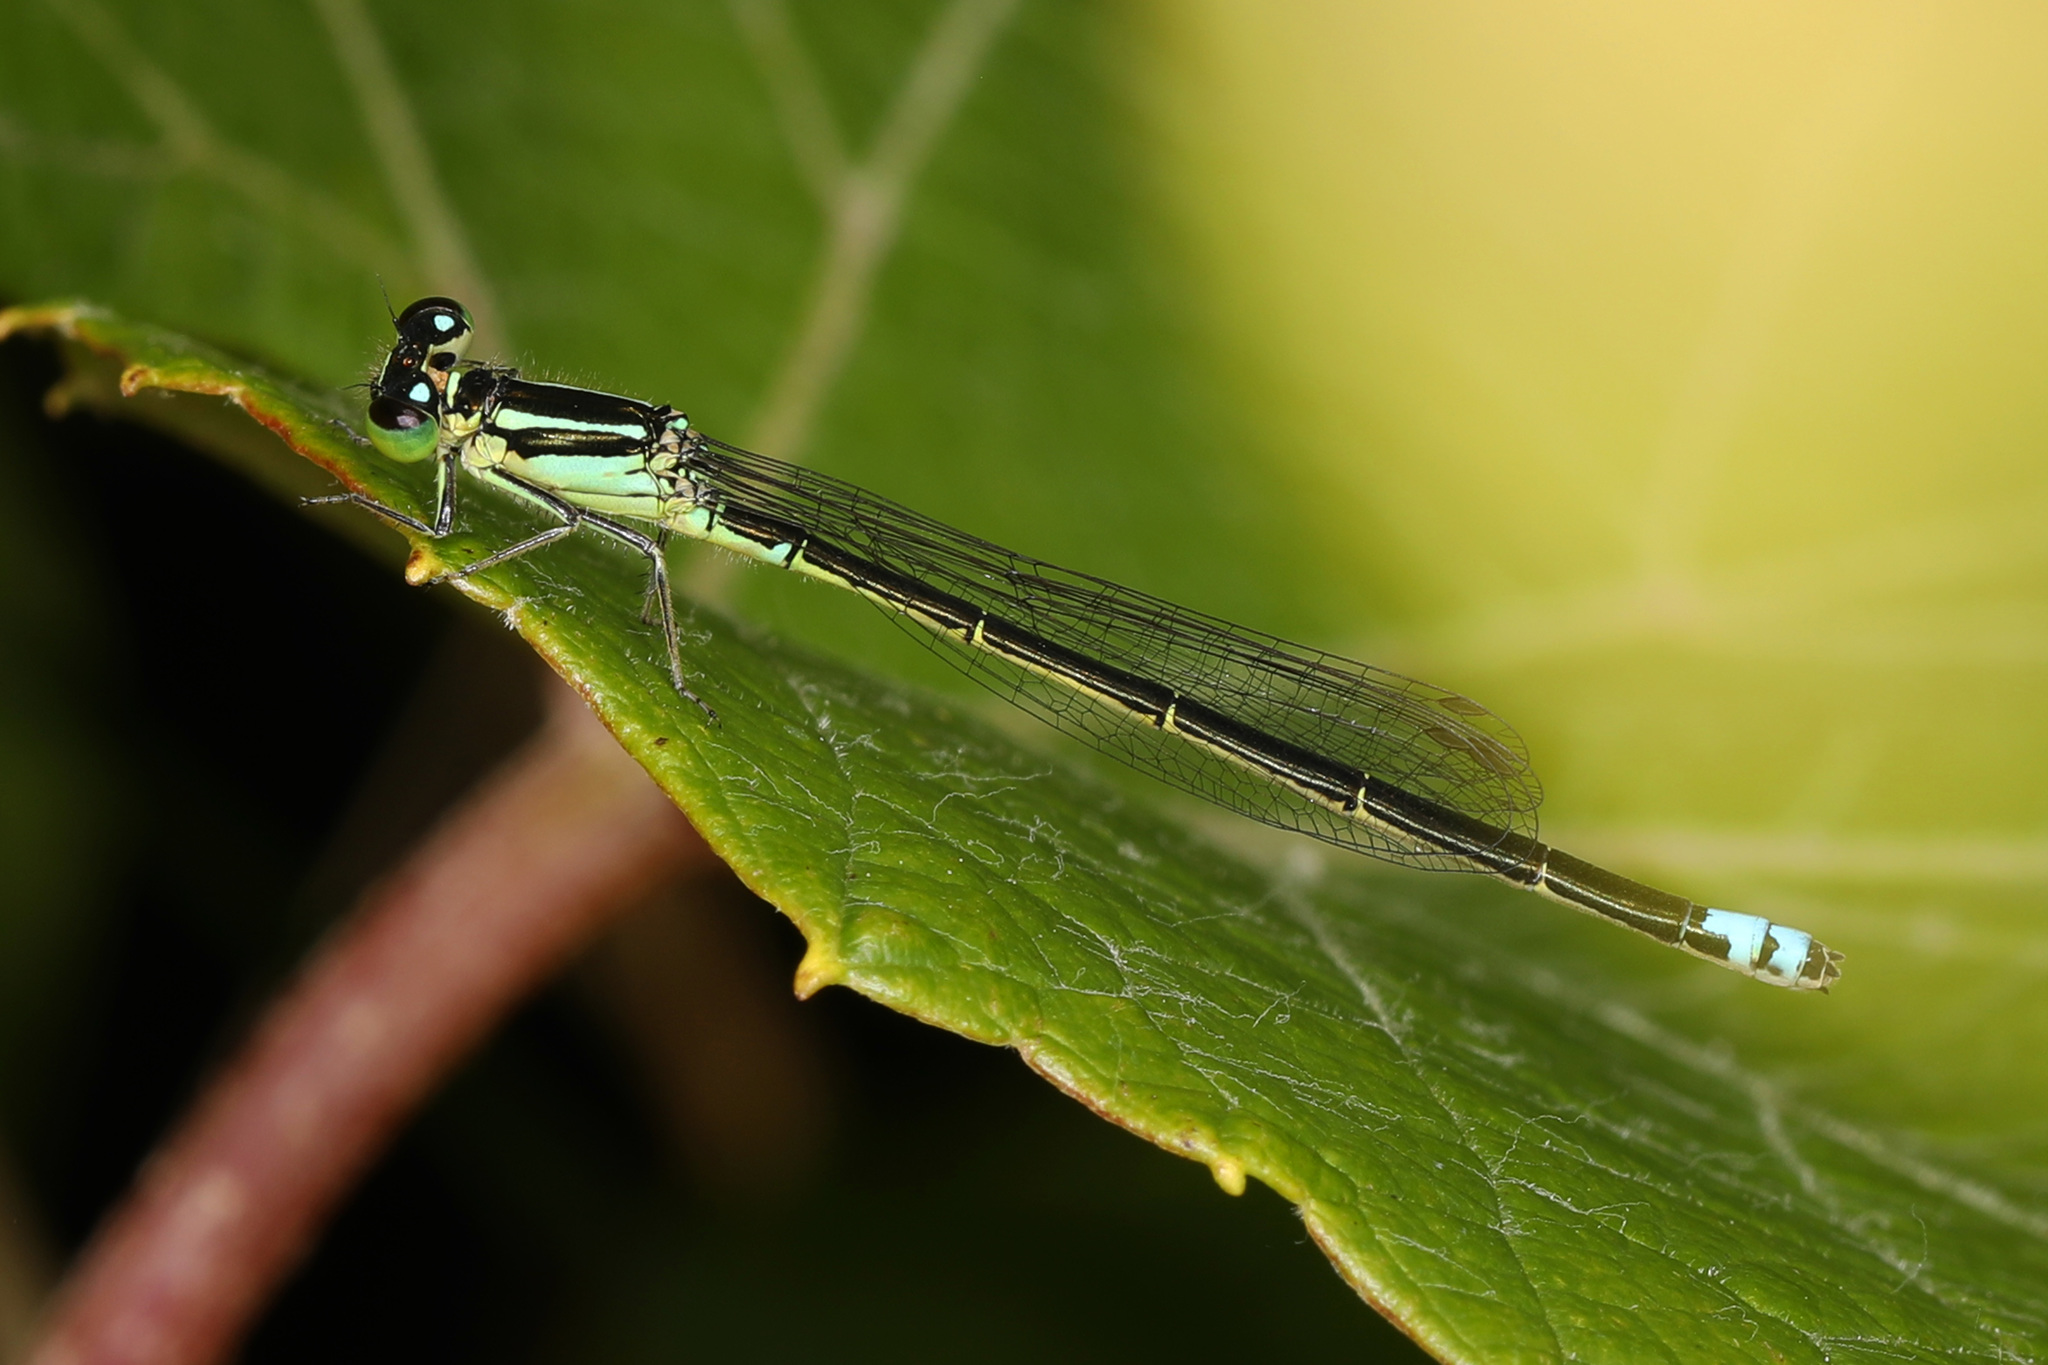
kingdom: Animalia
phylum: Arthropoda
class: Insecta
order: Odonata
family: Coenagrionidae
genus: Ischnura
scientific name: Ischnura verticalis
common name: Eastern forktail
